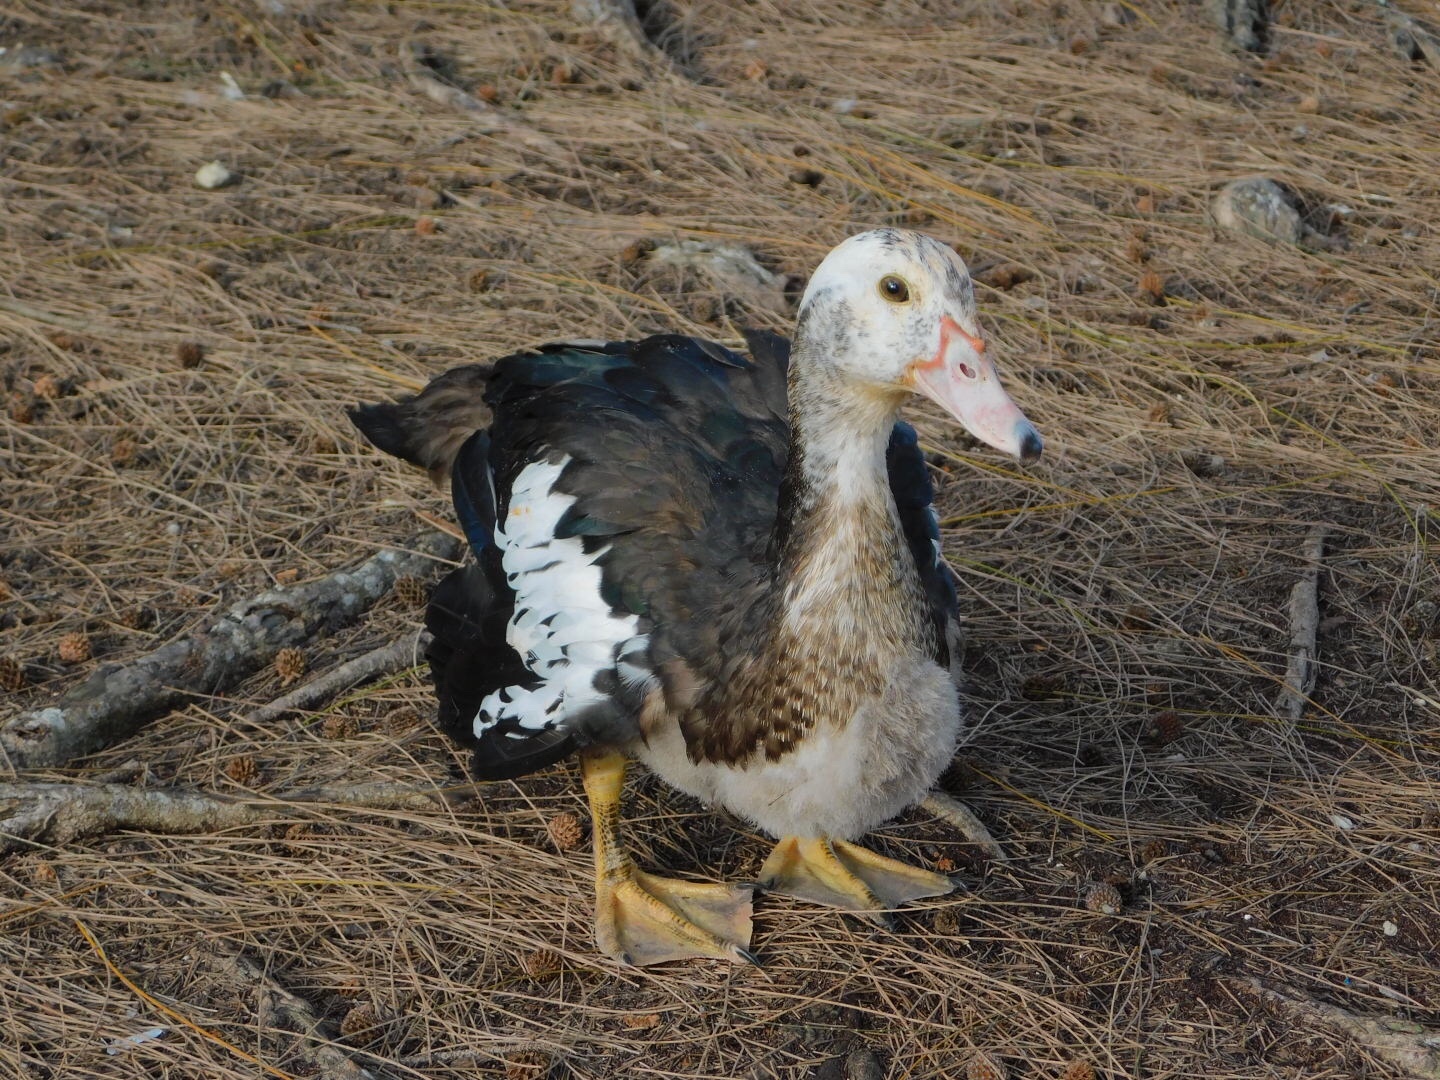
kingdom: Animalia
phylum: Chordata
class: Aves
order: Anseriformes
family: Anatidae
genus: Cairina
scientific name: Cairina moschata
